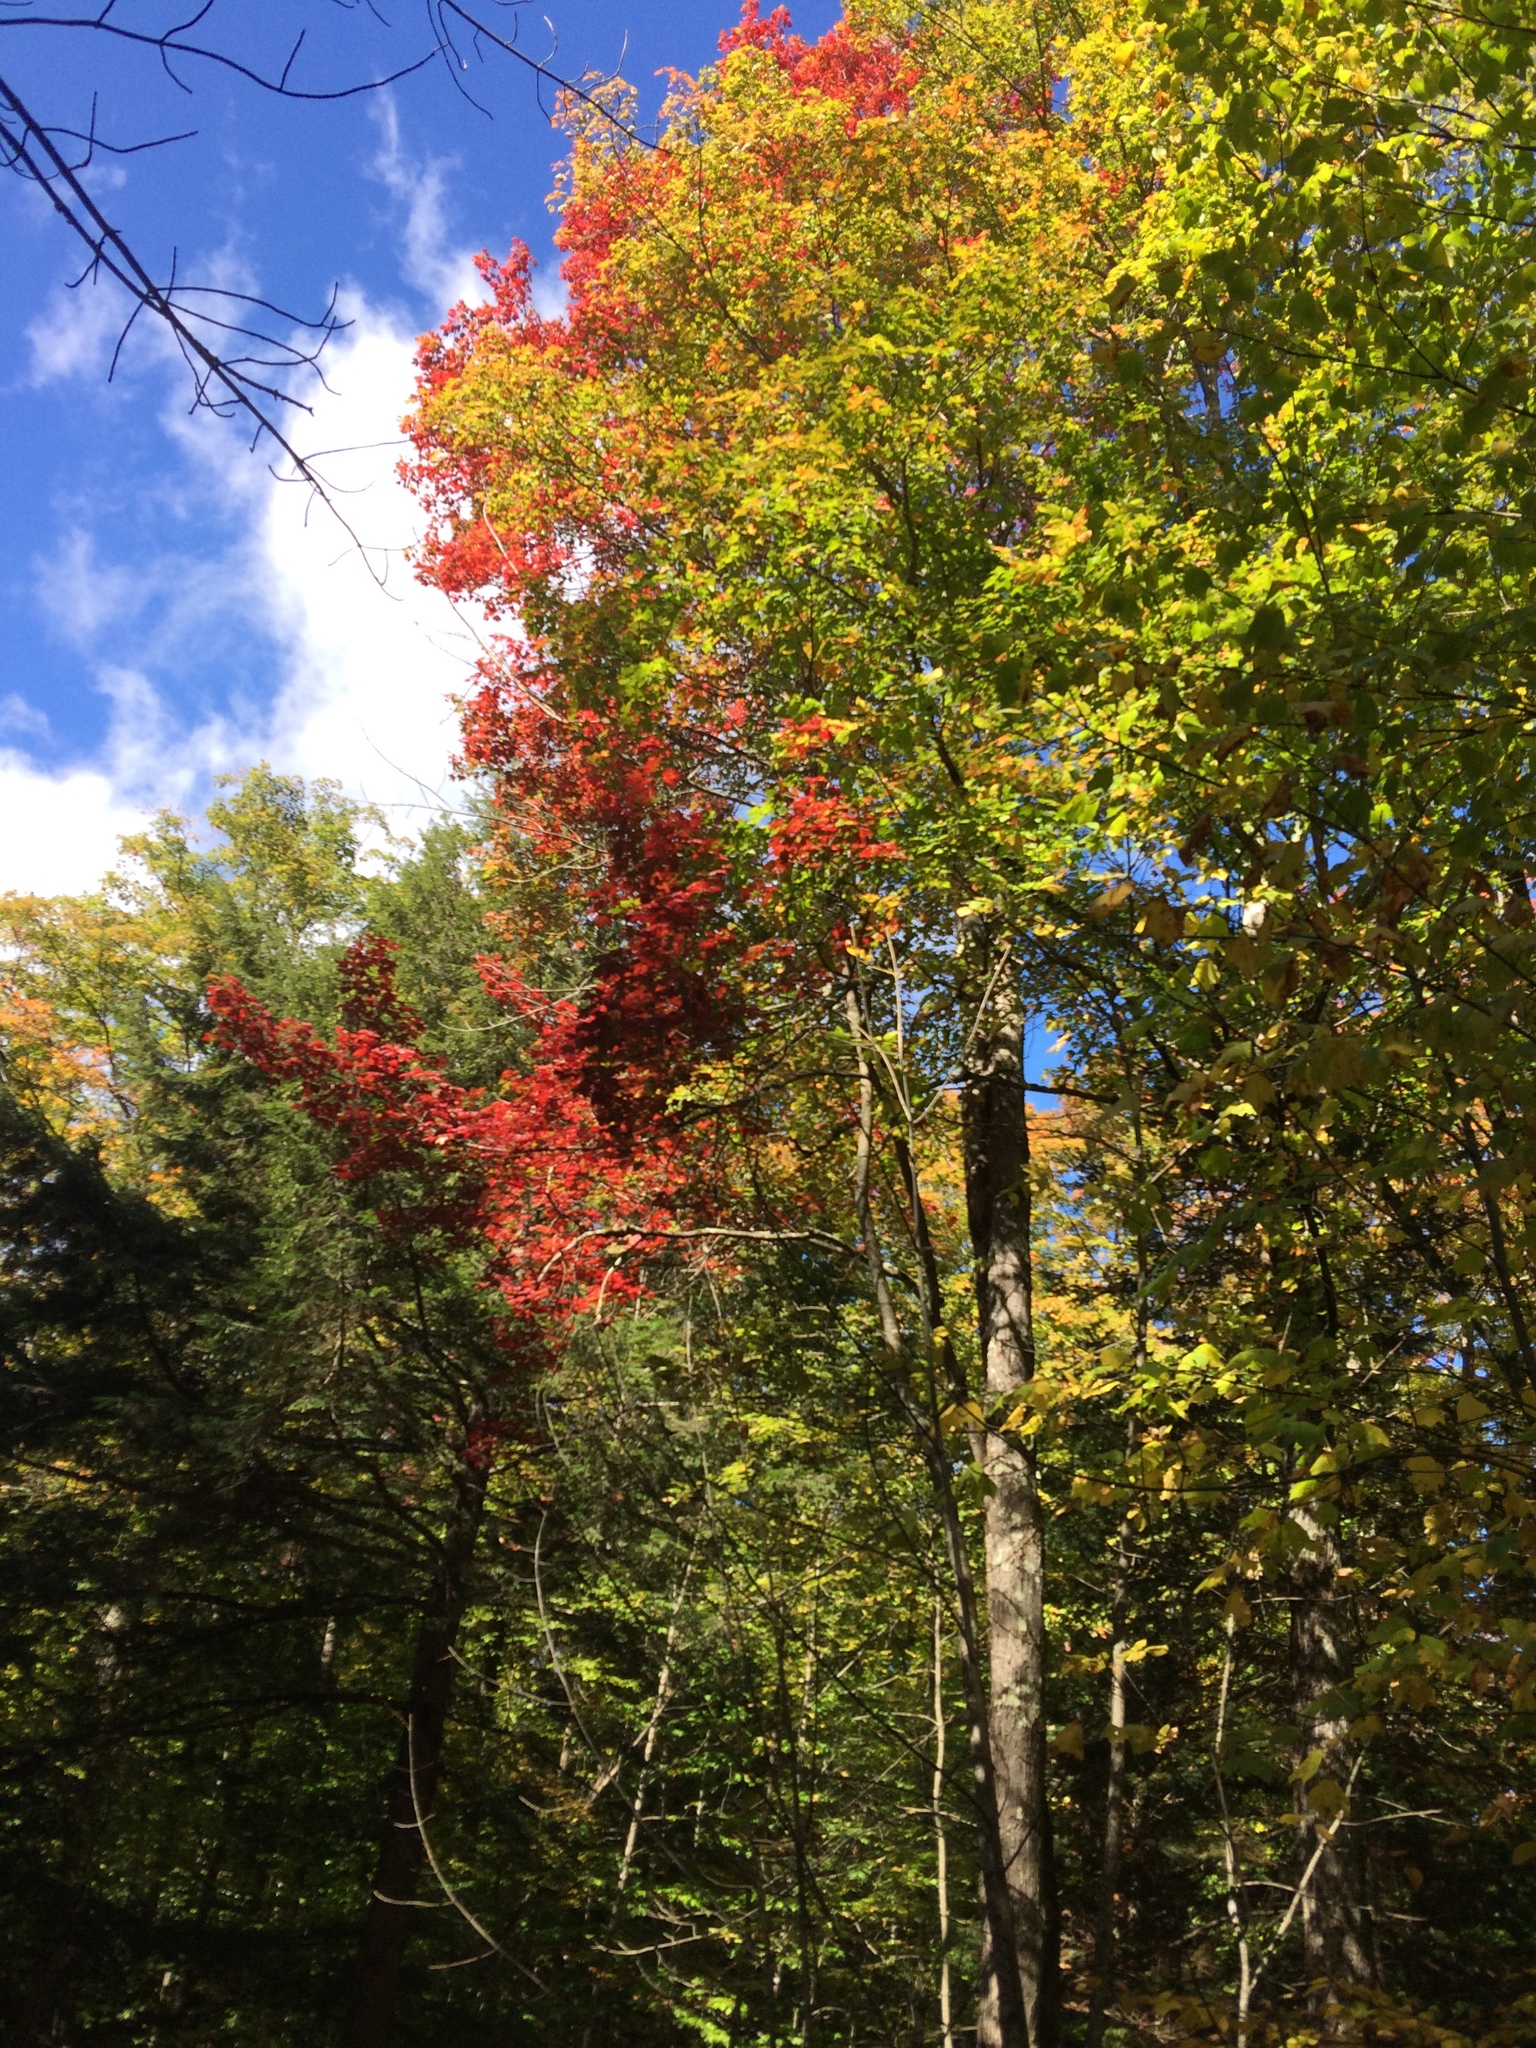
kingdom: Plantae
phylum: Tracheophyta
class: Magnoliopsida
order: Sapindales
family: Sapindaceae
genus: Acer
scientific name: Acer rubrum
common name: Red maple
